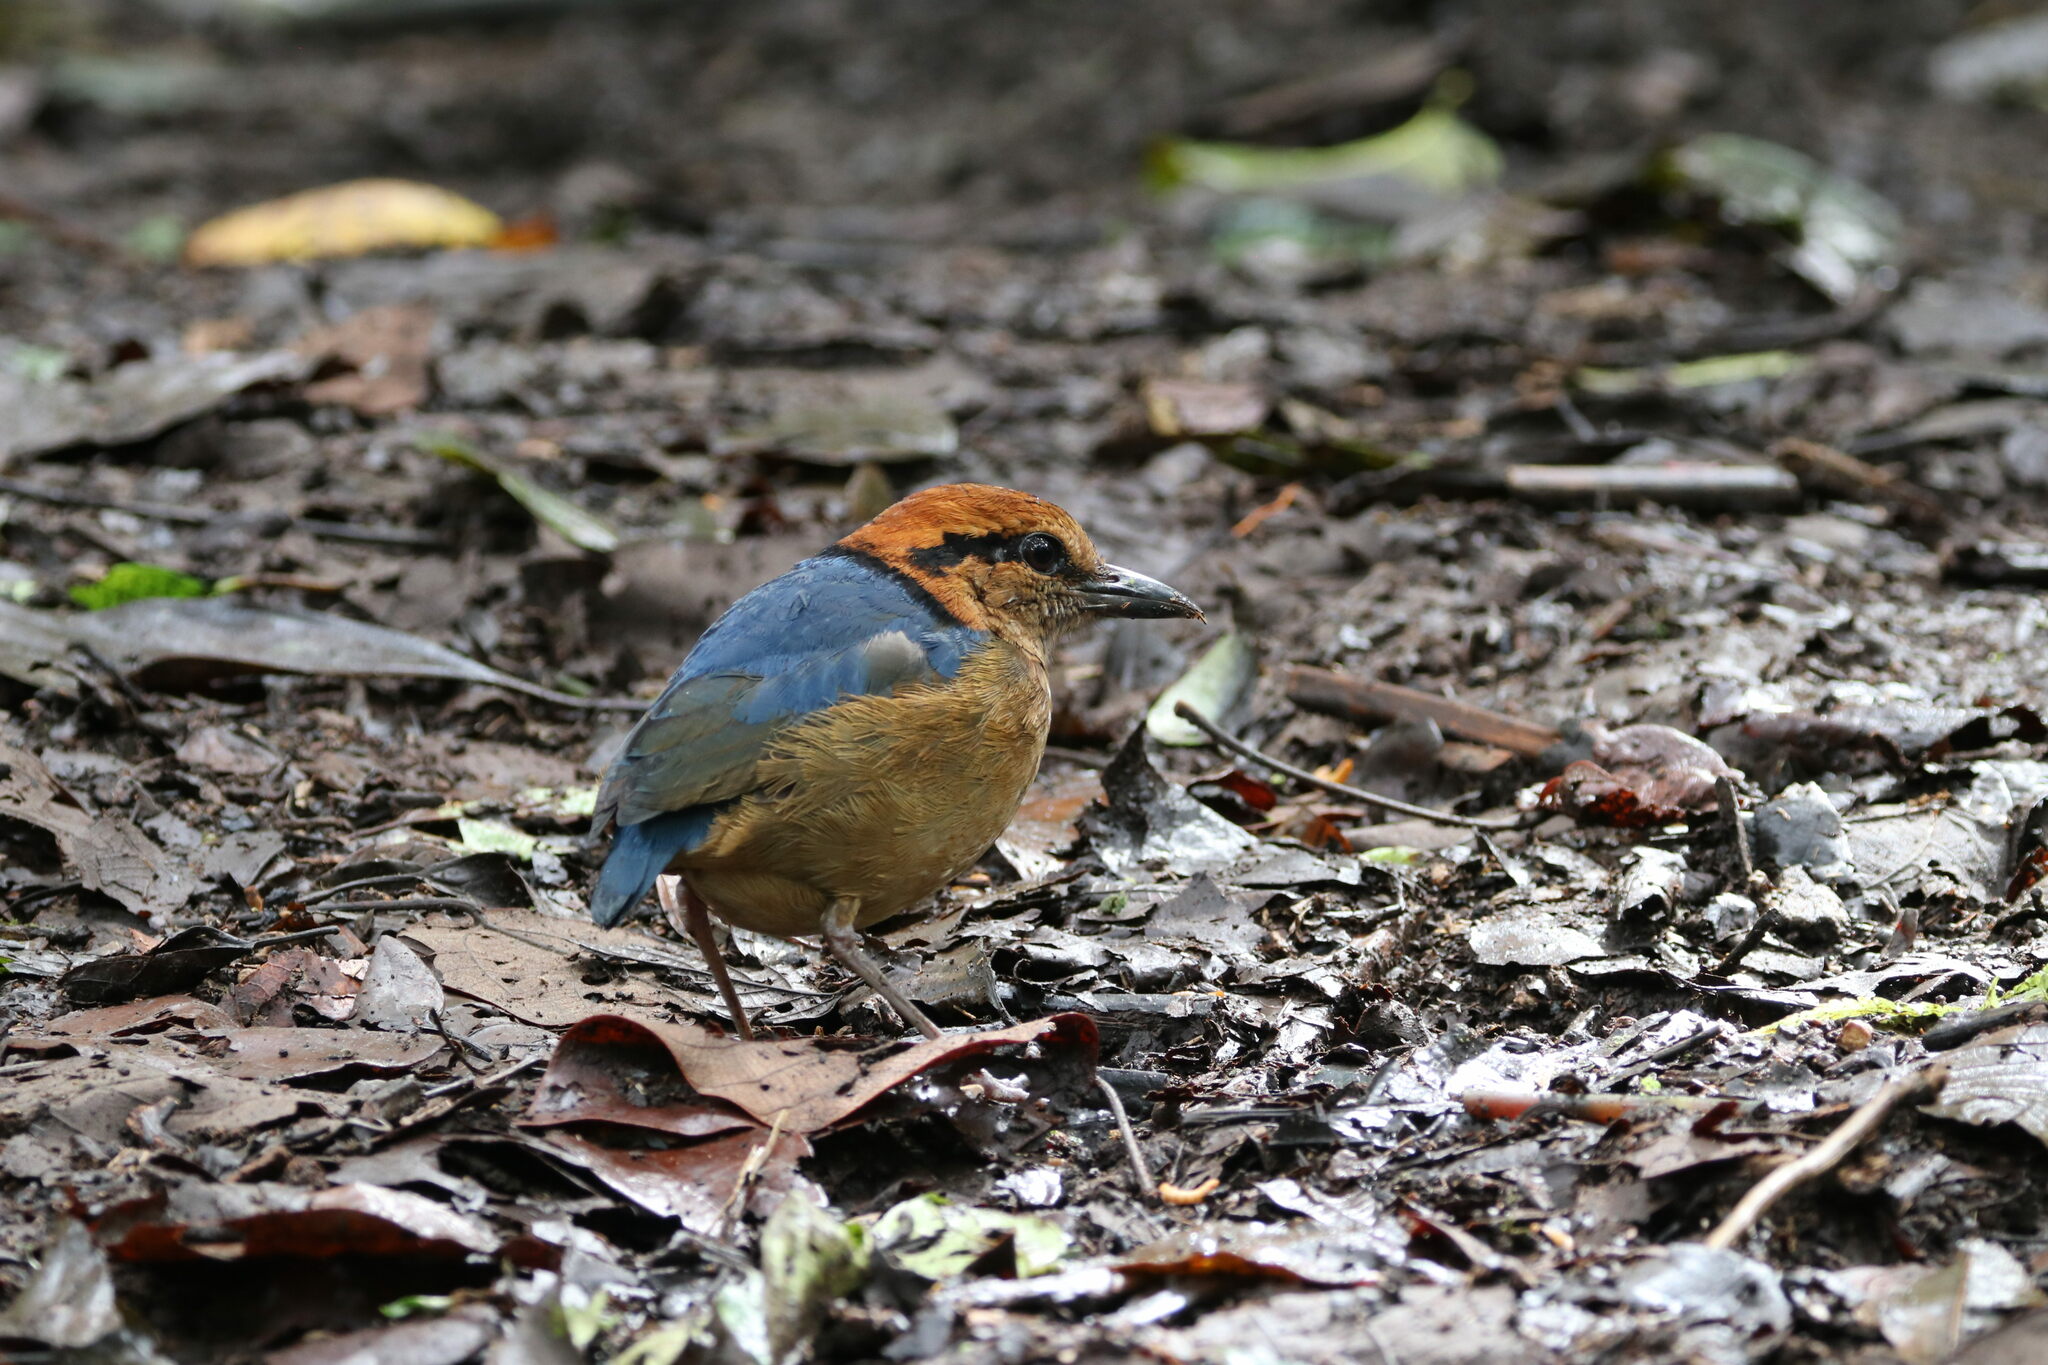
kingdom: Animalia
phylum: Chordata
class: Aves
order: Passeriformes
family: Pittidae
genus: Pitta
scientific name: Pitta schneideri
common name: Schneider's pitta
